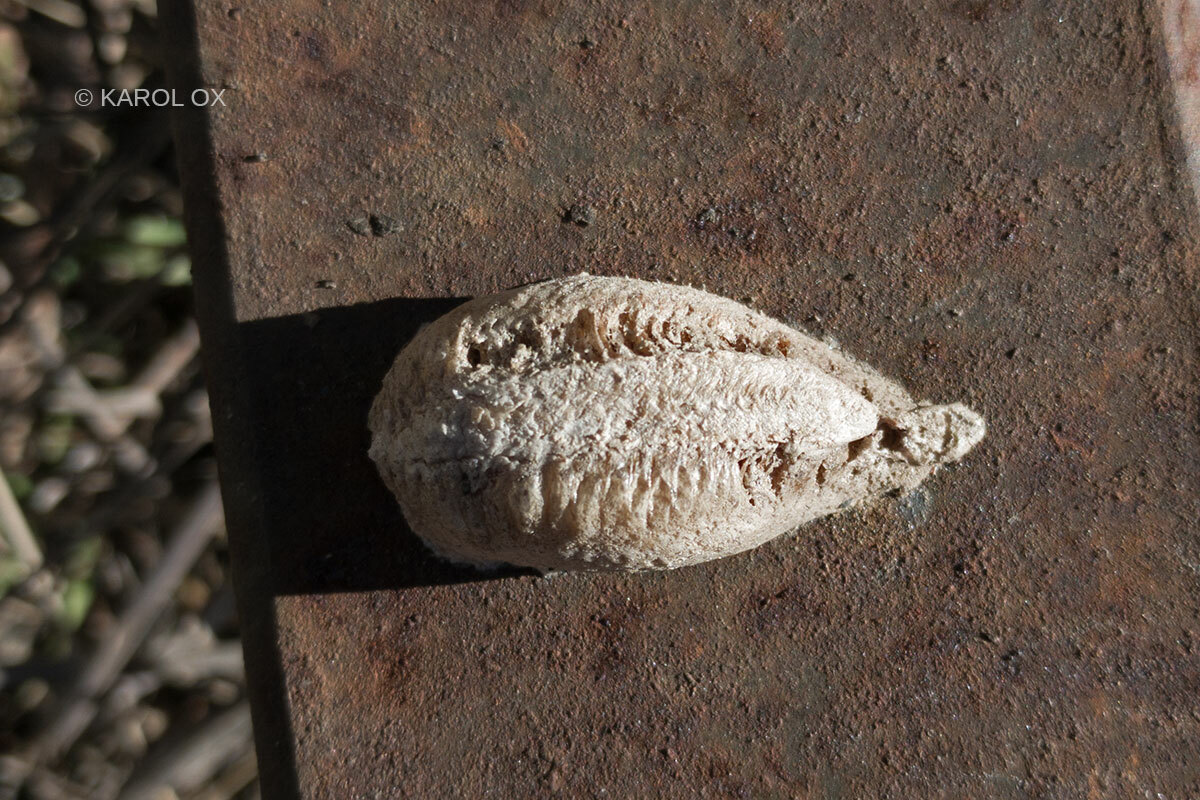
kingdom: Animalia
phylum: Arthropoda
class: Insecta
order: Mantodea
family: Mantidae
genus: Mantis
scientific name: Mantis religiosa
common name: Praying mantis
